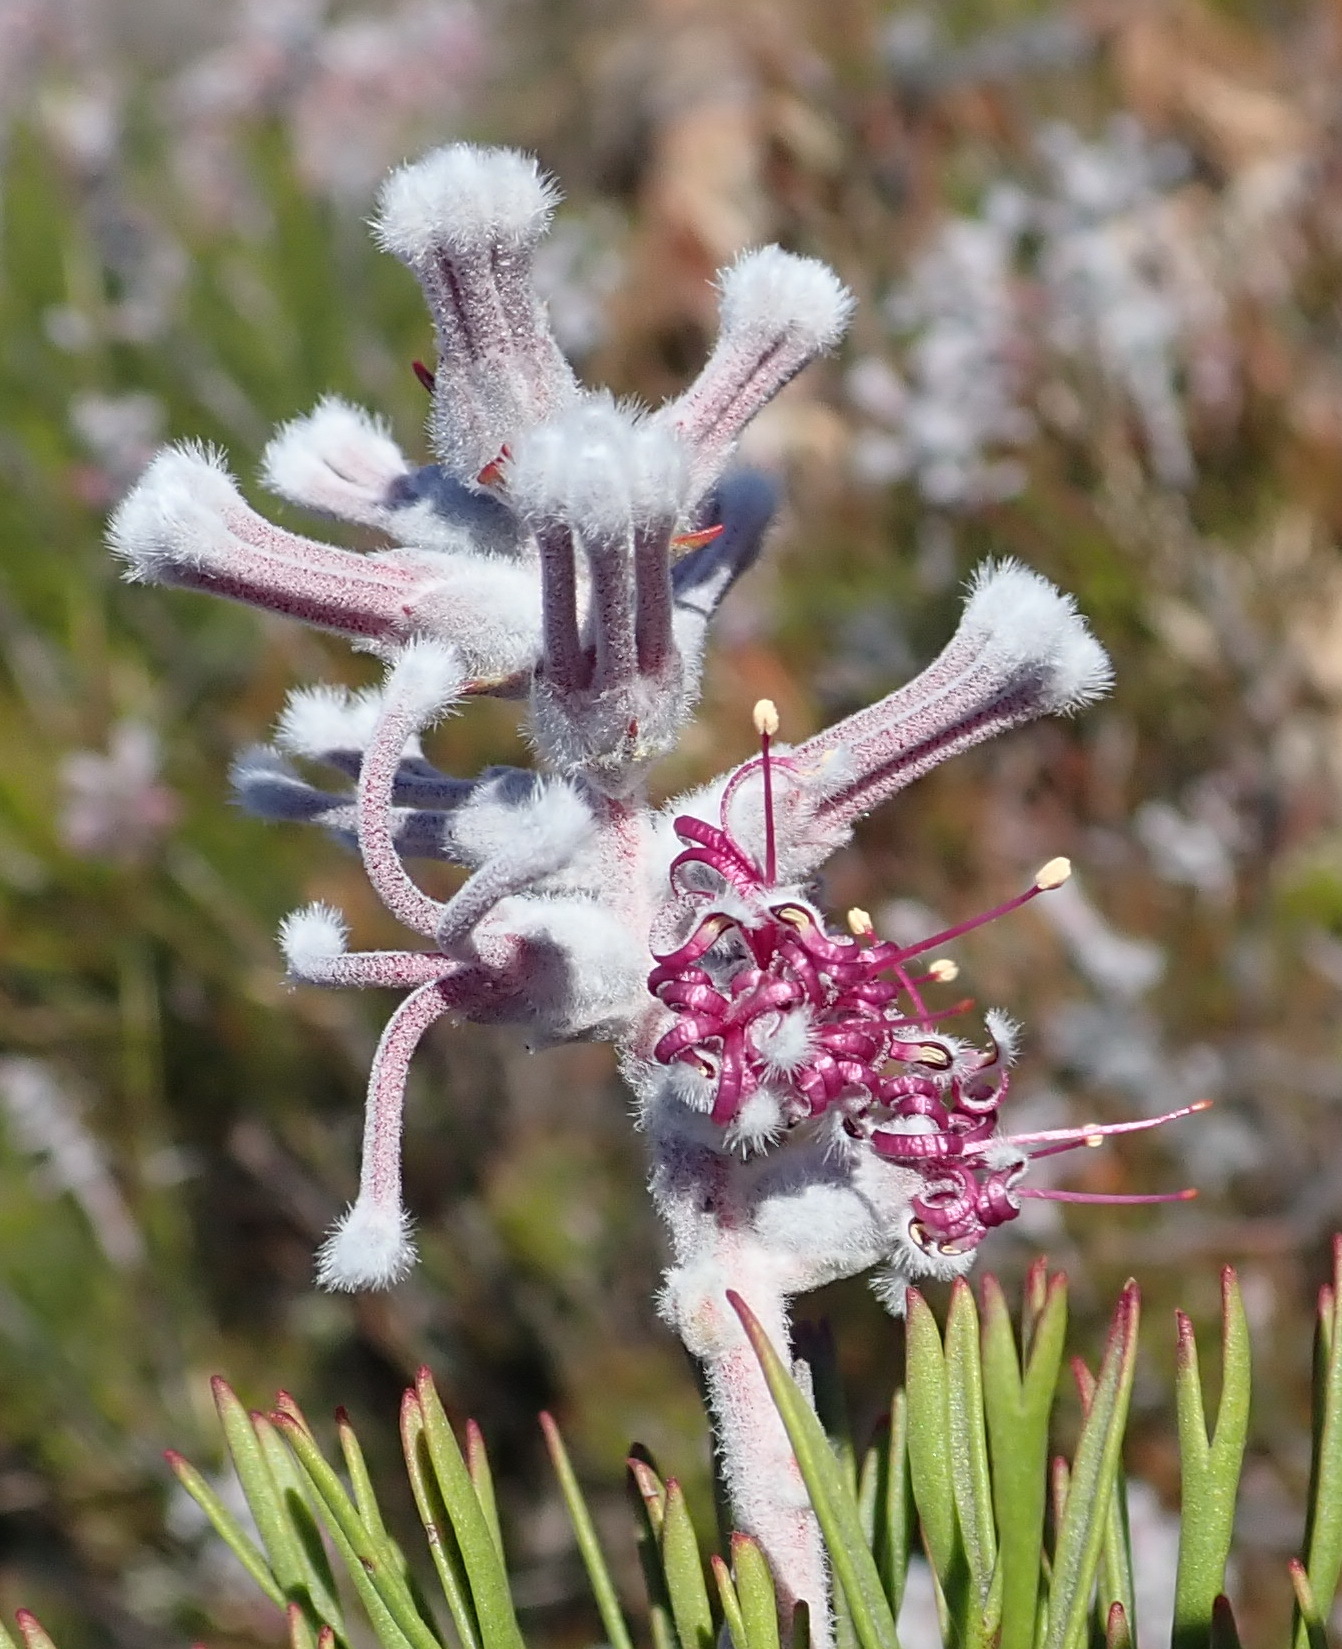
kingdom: Plantae
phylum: Tracheophyta
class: Magnoliopsida
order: Proteales
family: Proteaceae
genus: Paranomus
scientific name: Paranomus dispersus
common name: Long-head sceptre
